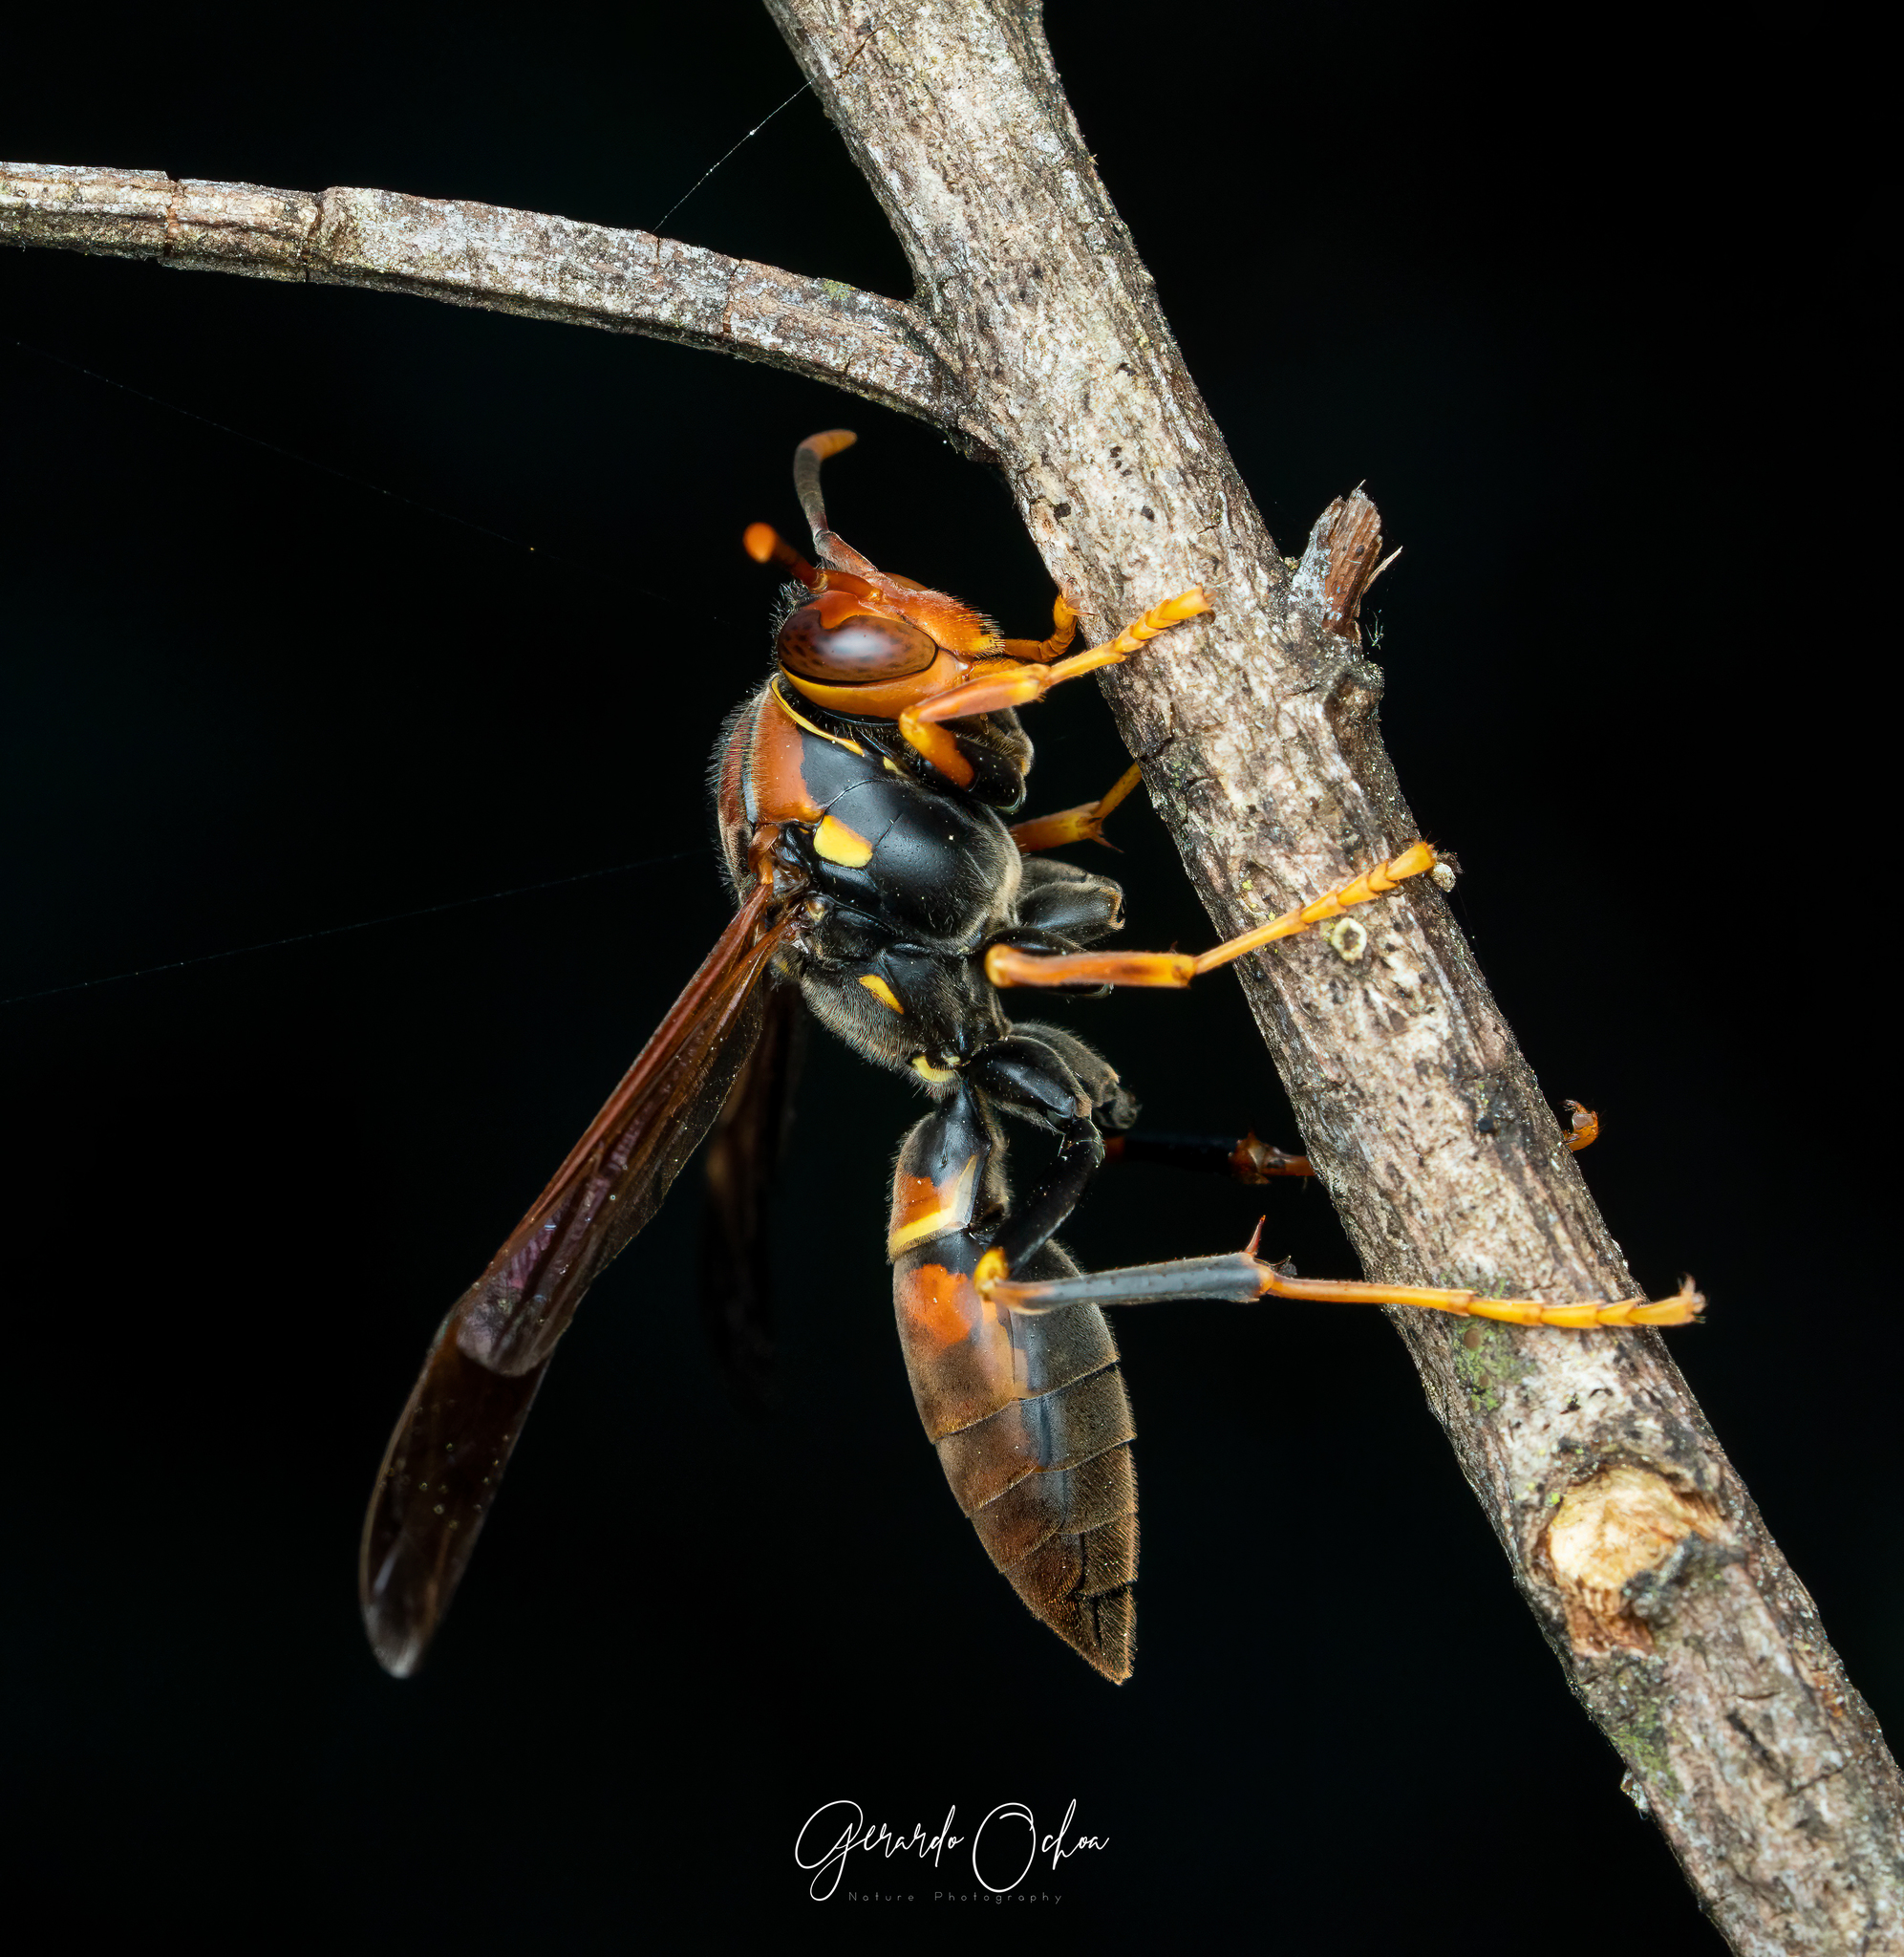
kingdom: Animalia
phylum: Arthropoda
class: Insecta
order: Hymenoptera
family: Eumenidae
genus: Polistes
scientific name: Polistes veracrucis
